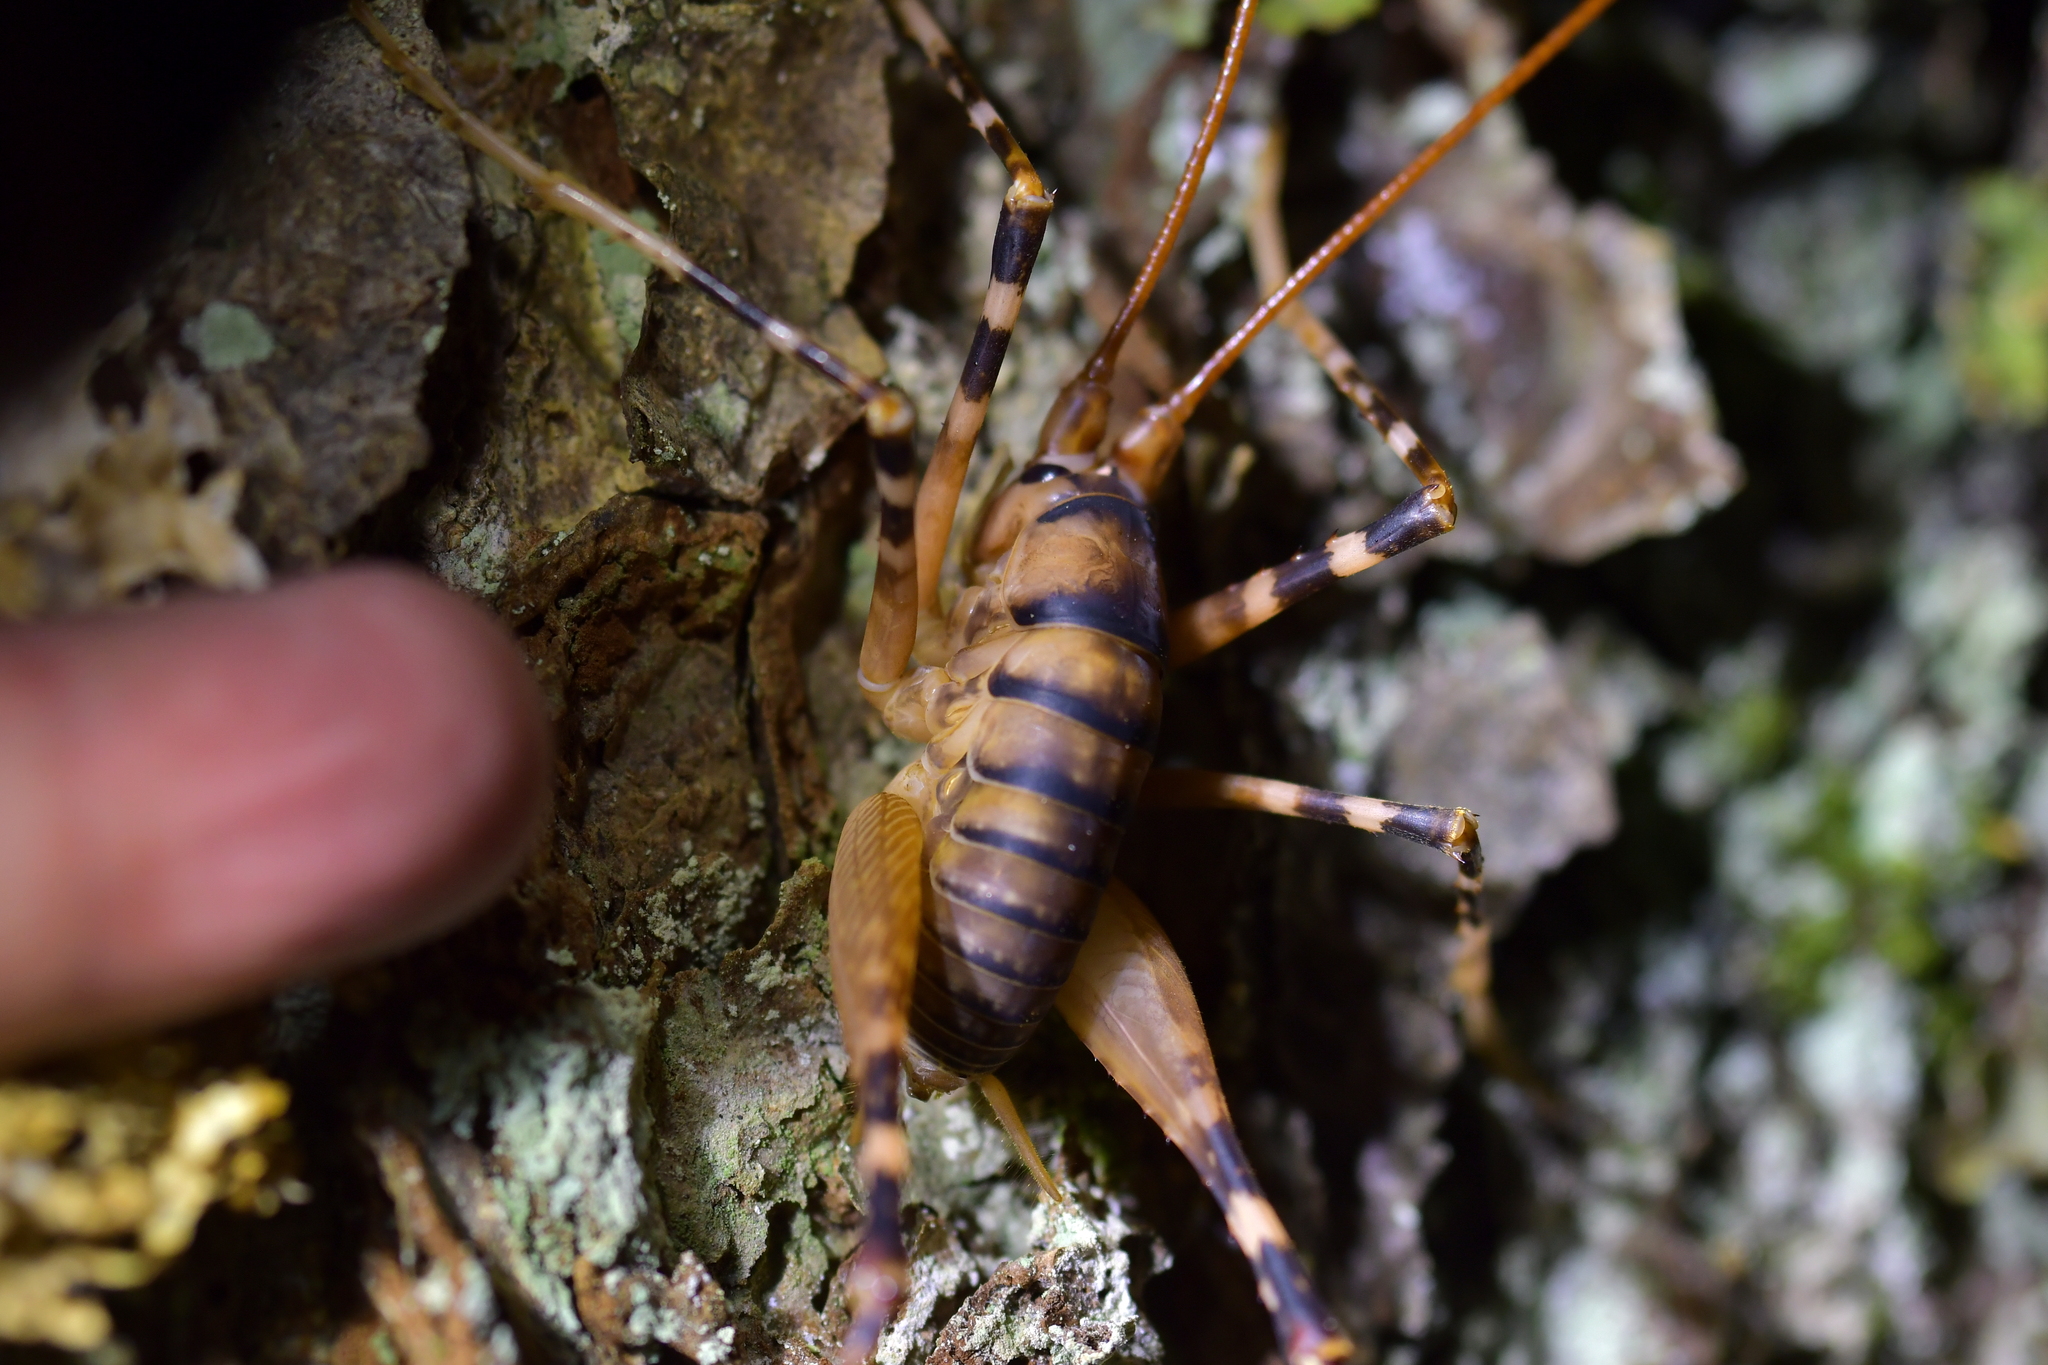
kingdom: Animalia
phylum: Arthropoda
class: Insecta
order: Orthoptera
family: Rhaphidophoridae
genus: Pachyrhamma
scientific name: Pachyrhamma edwardsii
